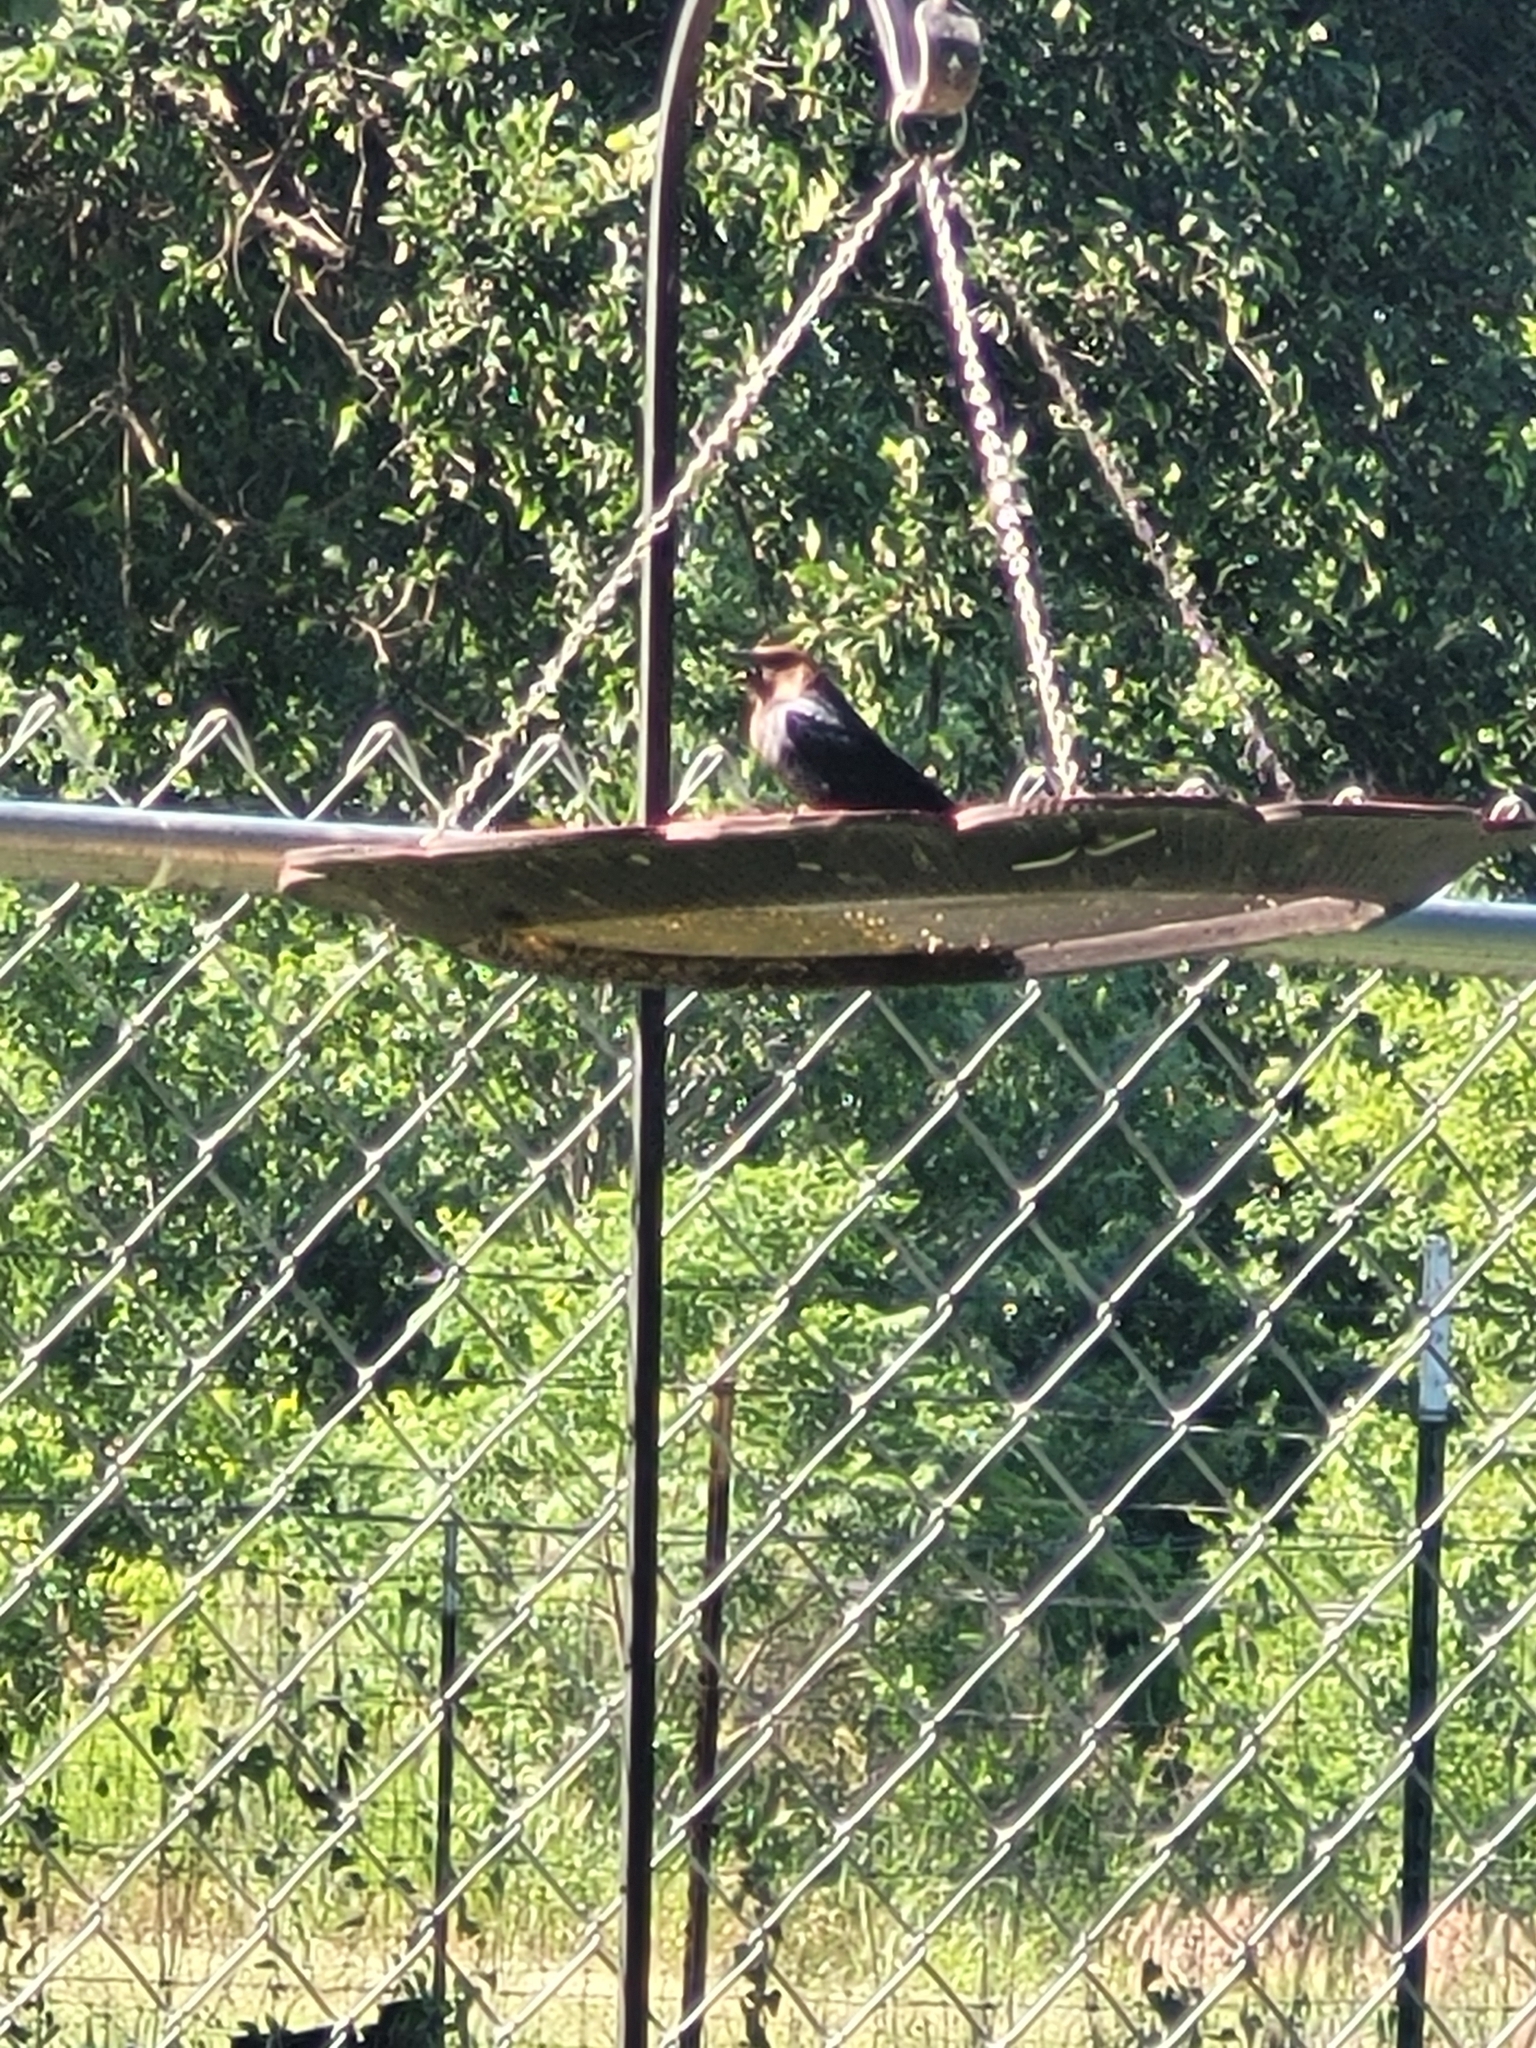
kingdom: Animalia
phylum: Chordata
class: Aves
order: Passeriformes
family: Icteridae
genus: Molothrus
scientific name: Molothrus ater
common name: Brown-headed cowbird
